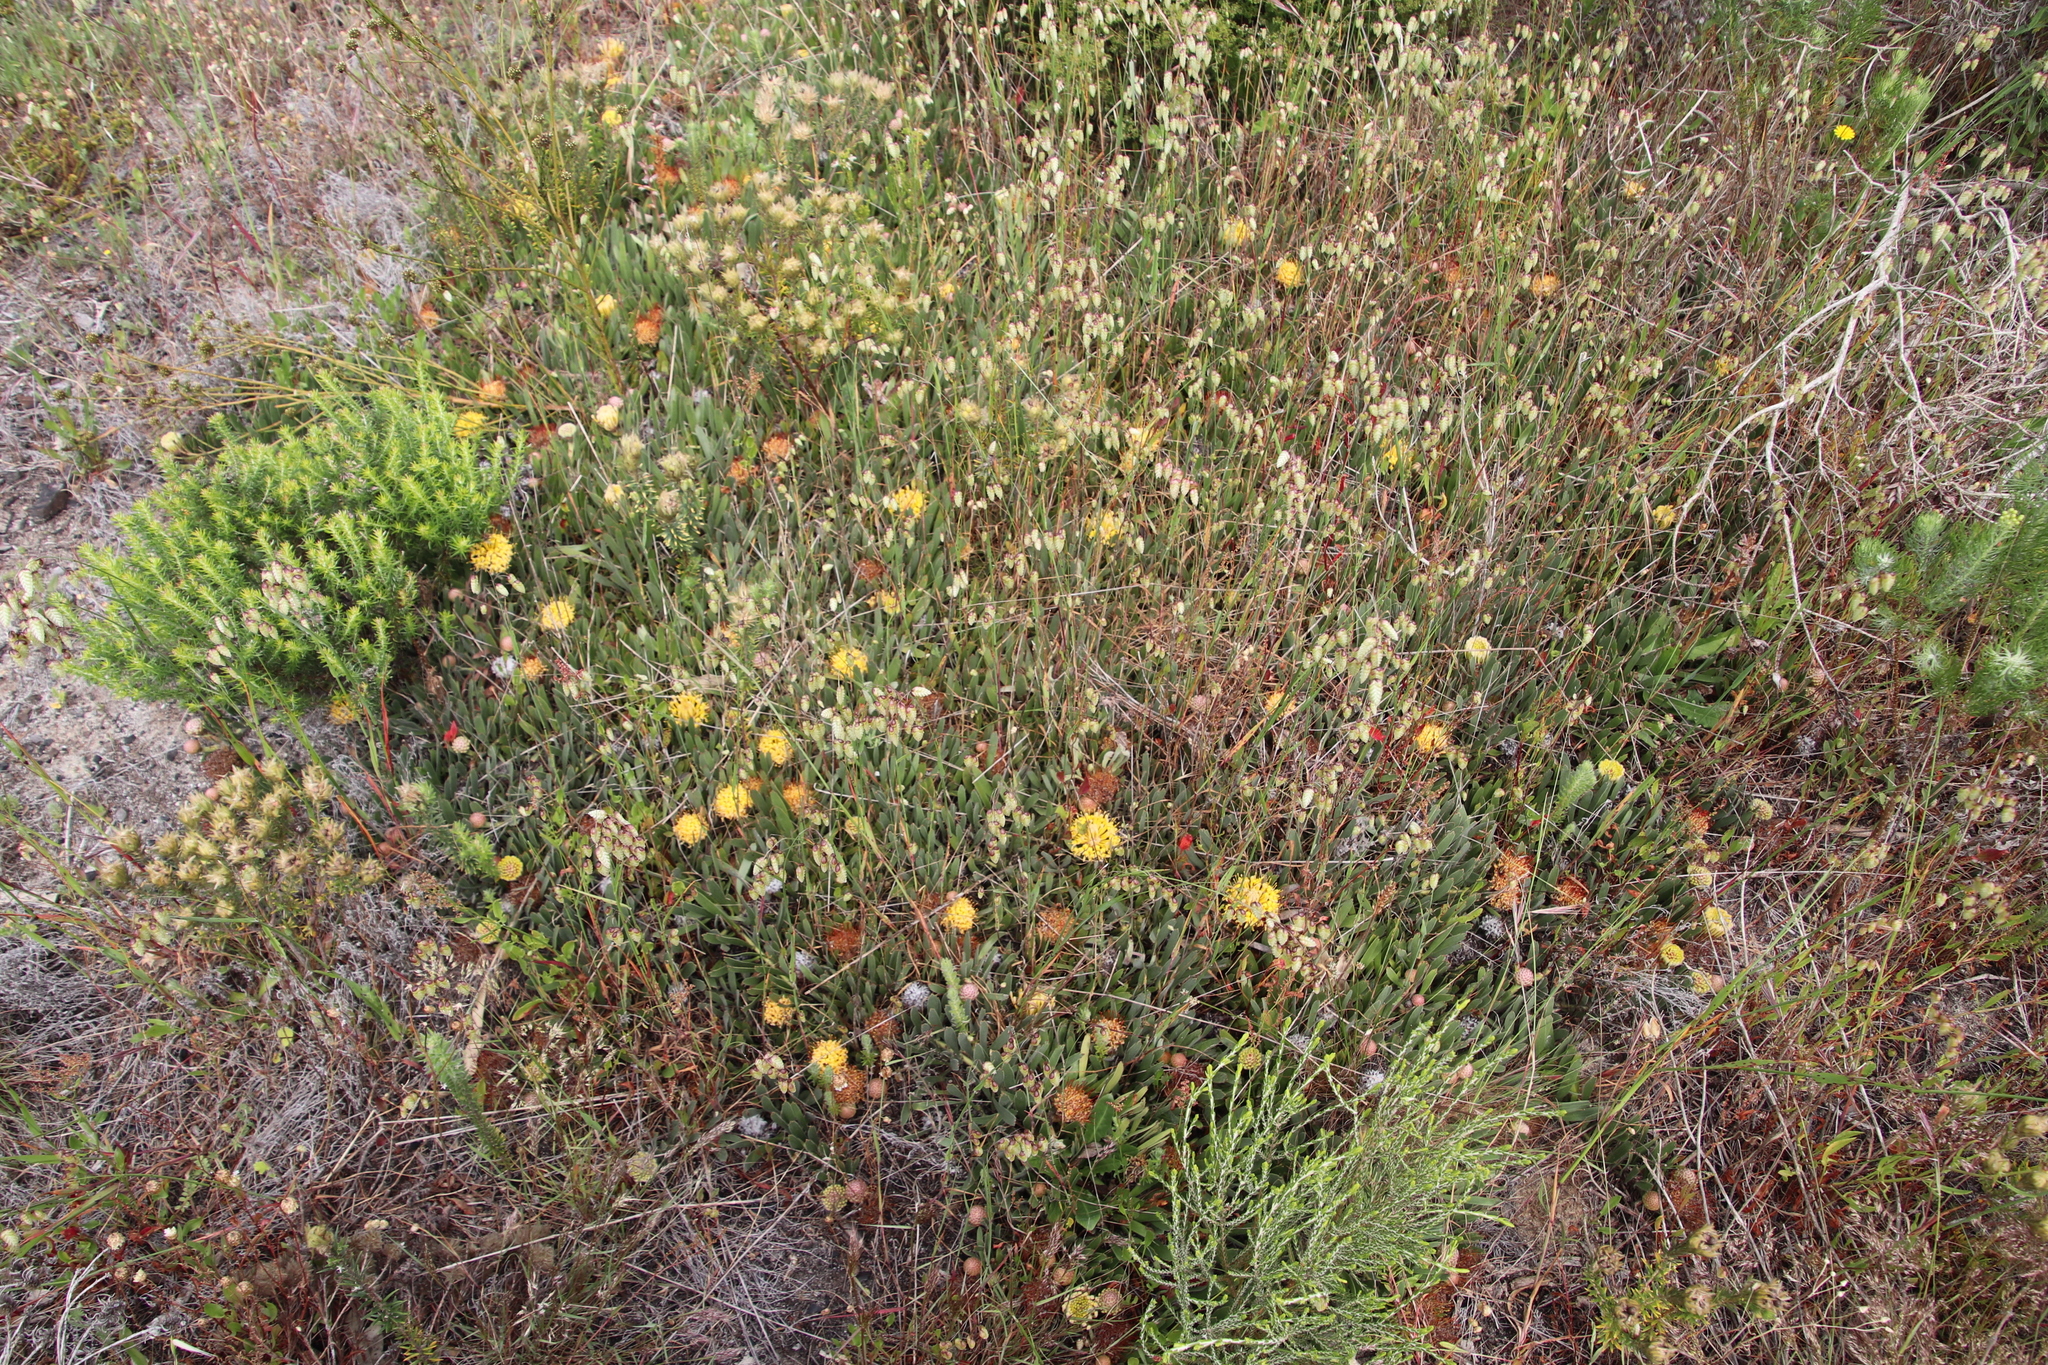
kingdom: Plantae
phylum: Tracheophyta
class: Magnoliopsida
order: Proteales
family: Proteaceae
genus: Leucospermum
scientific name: Leucospermum hypophyllocarpodendron
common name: Snakestem pincushion
